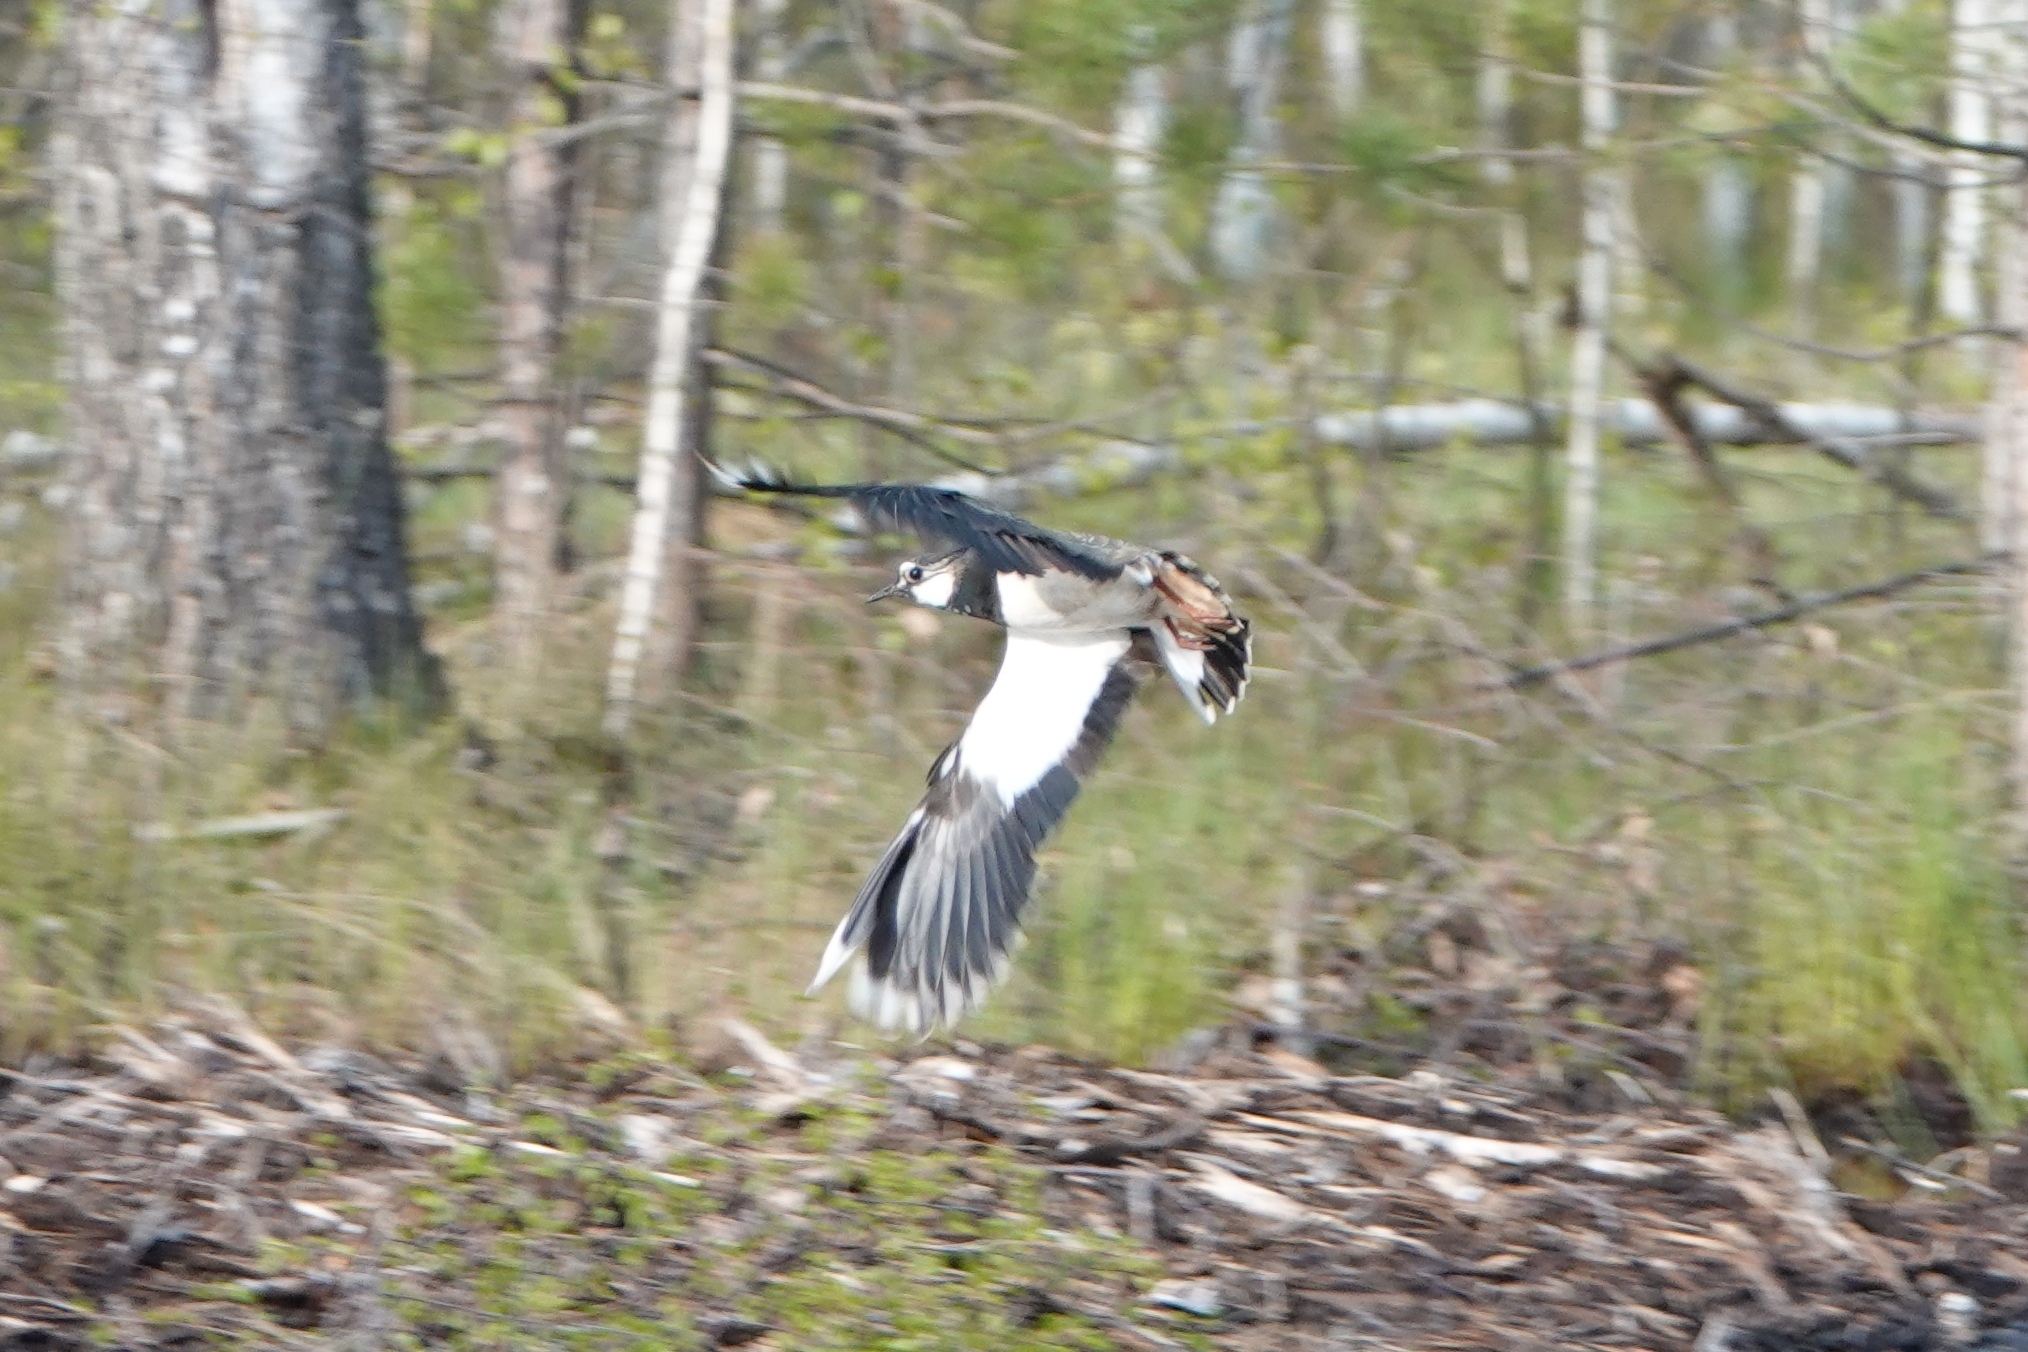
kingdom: Animalia
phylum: Chordata
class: Aves
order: Charadriiformes
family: Charadriidae
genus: Vanellus
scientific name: Vanellus vanellus
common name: Northern lapwing
